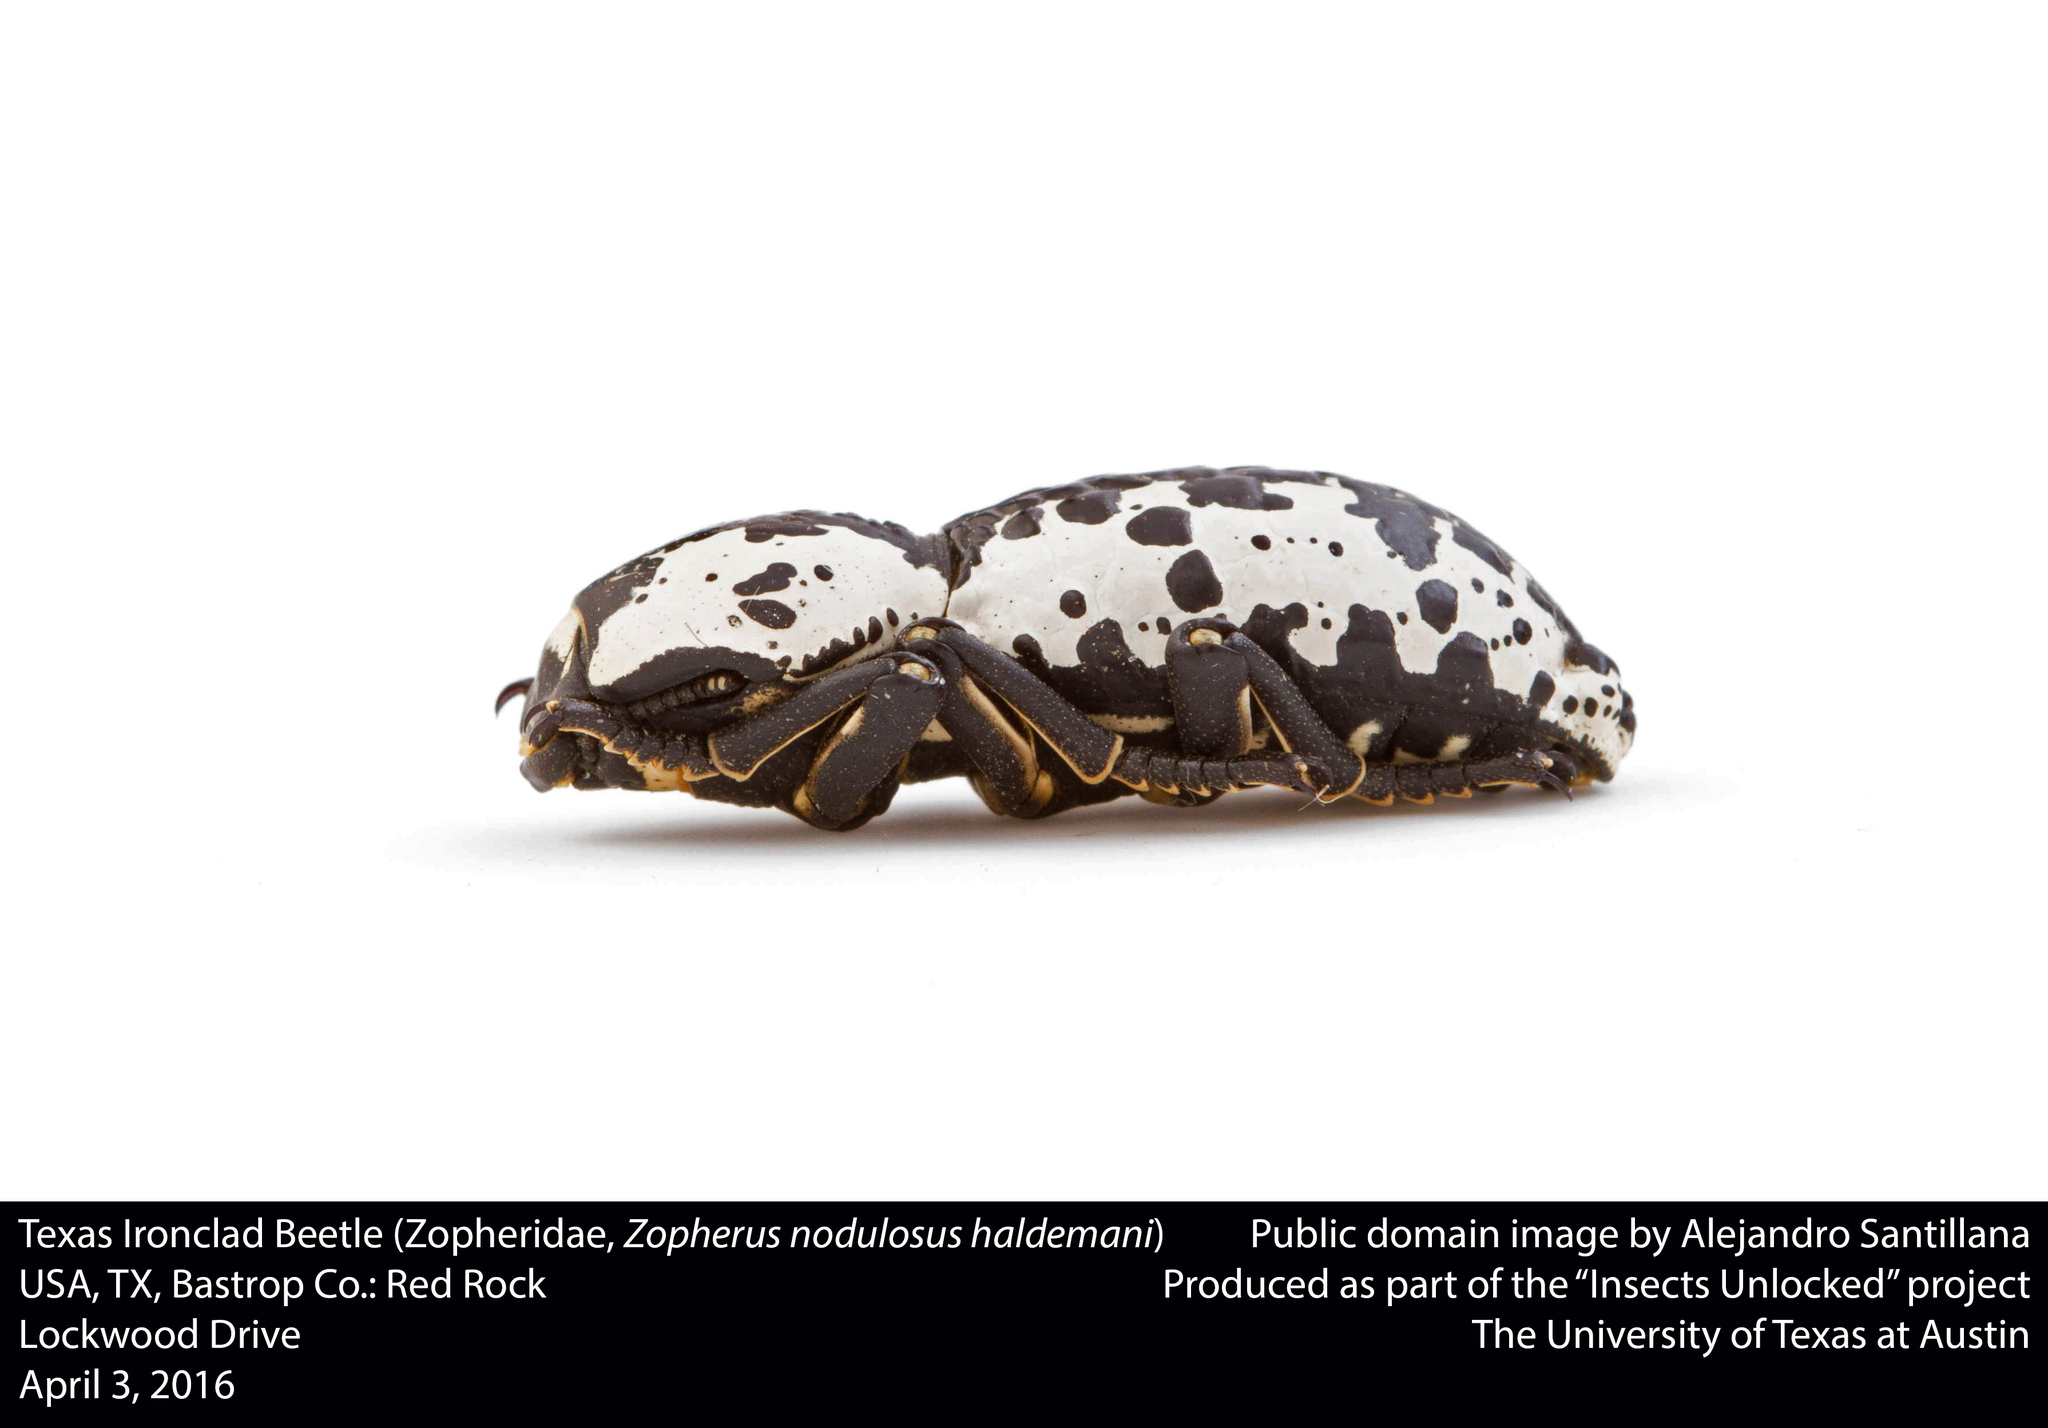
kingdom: Animalia
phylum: Arthropoda
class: Insecta
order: Coleoptera
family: Zopheridae
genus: Zopherus
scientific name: Zopherus nodulosus
